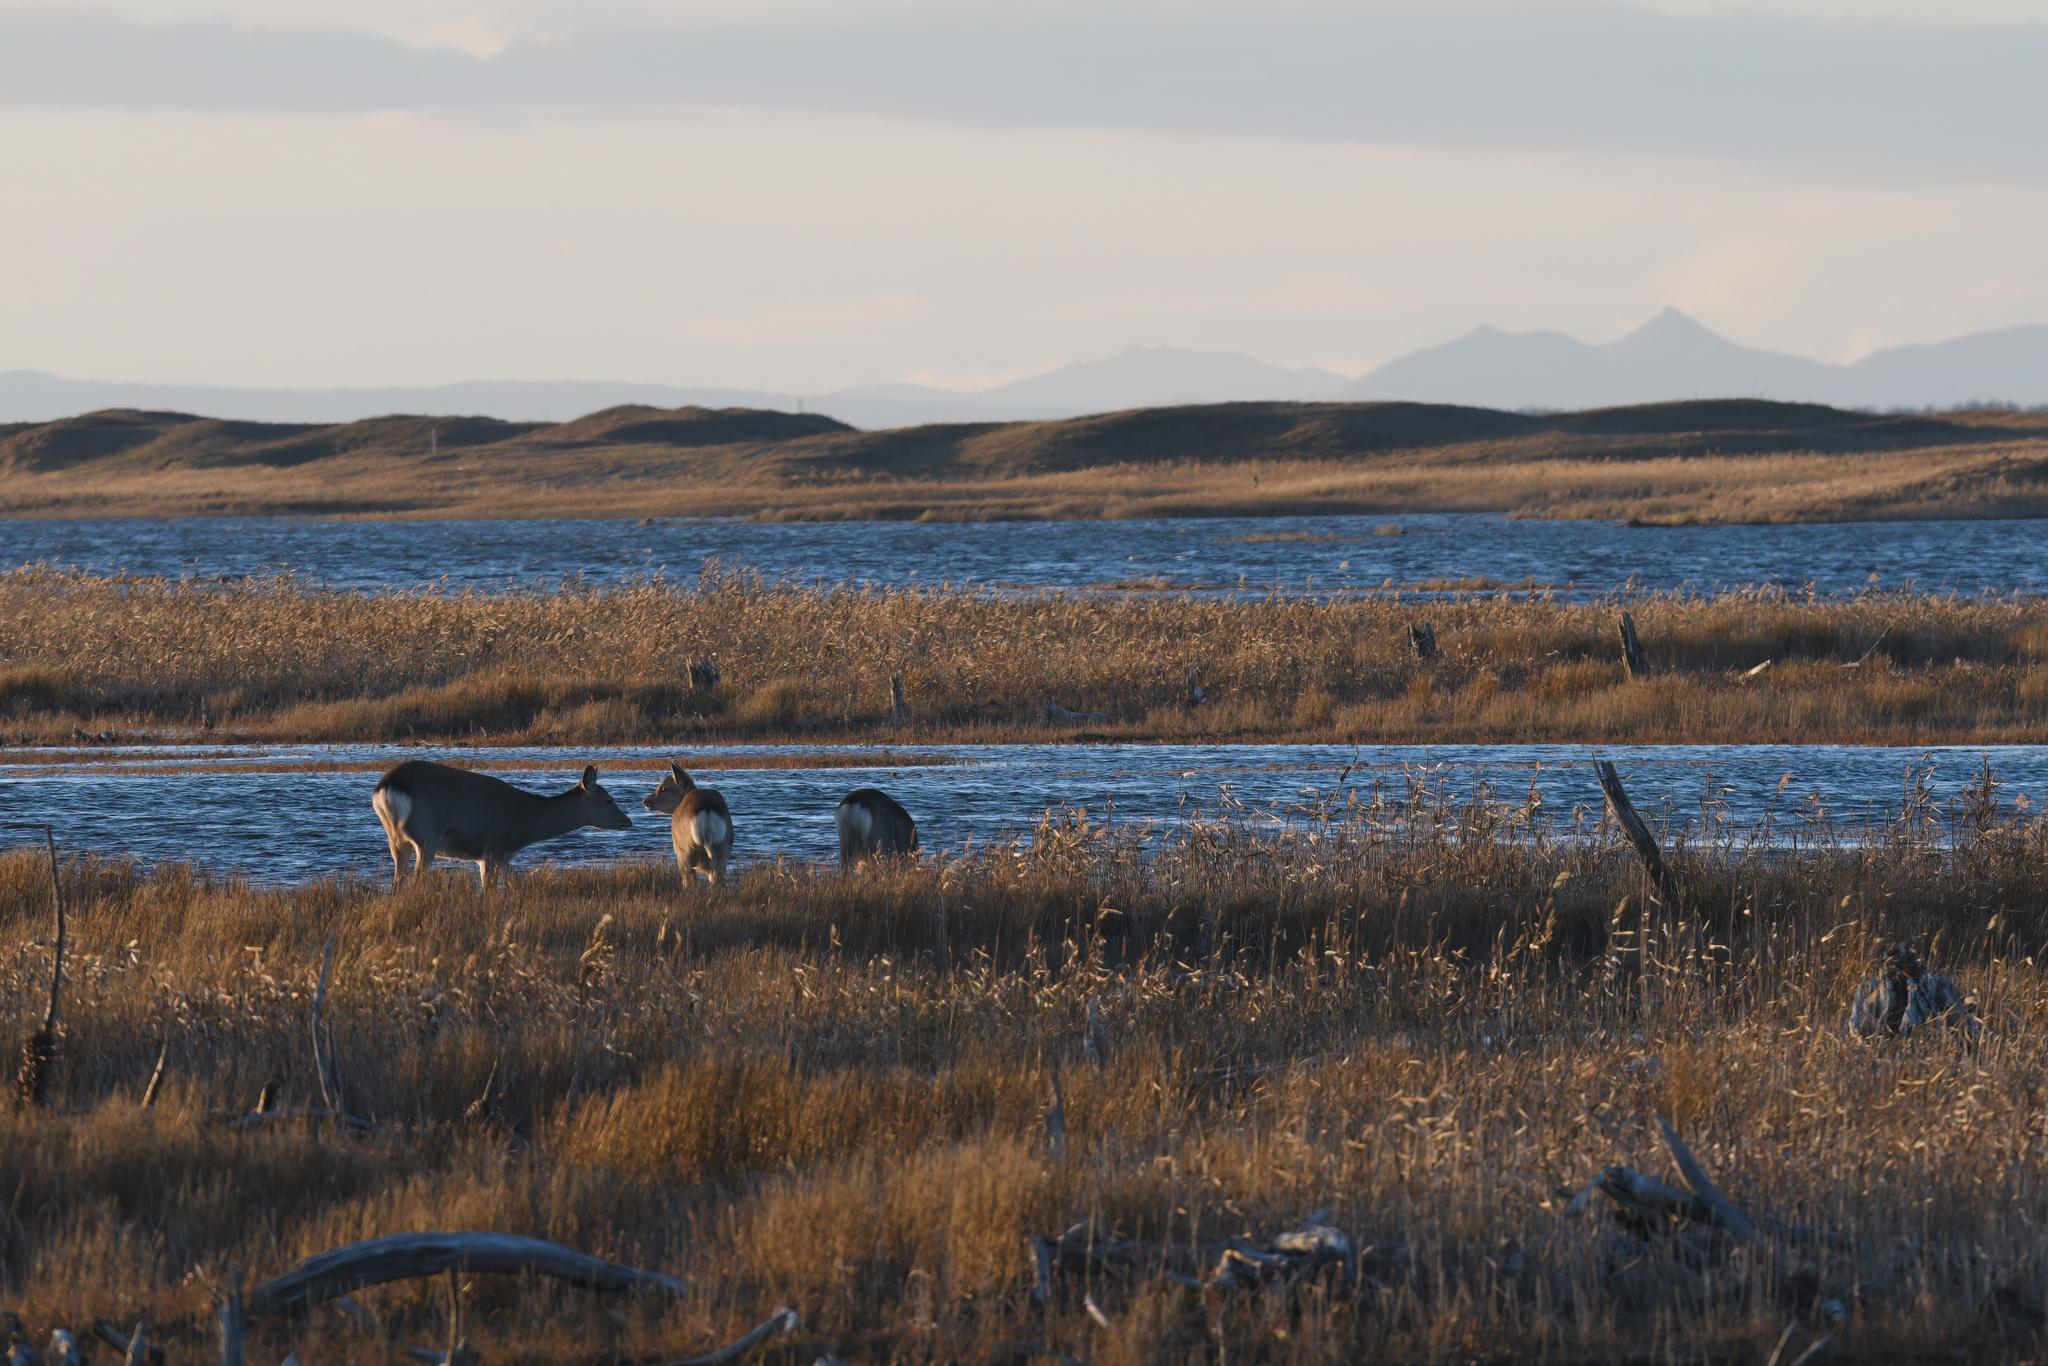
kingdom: Animalia
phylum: Chordata
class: Mammalia
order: Artiodactyla
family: Cervidae
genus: Cervus
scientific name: Cervus nippon
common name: Sika deer
